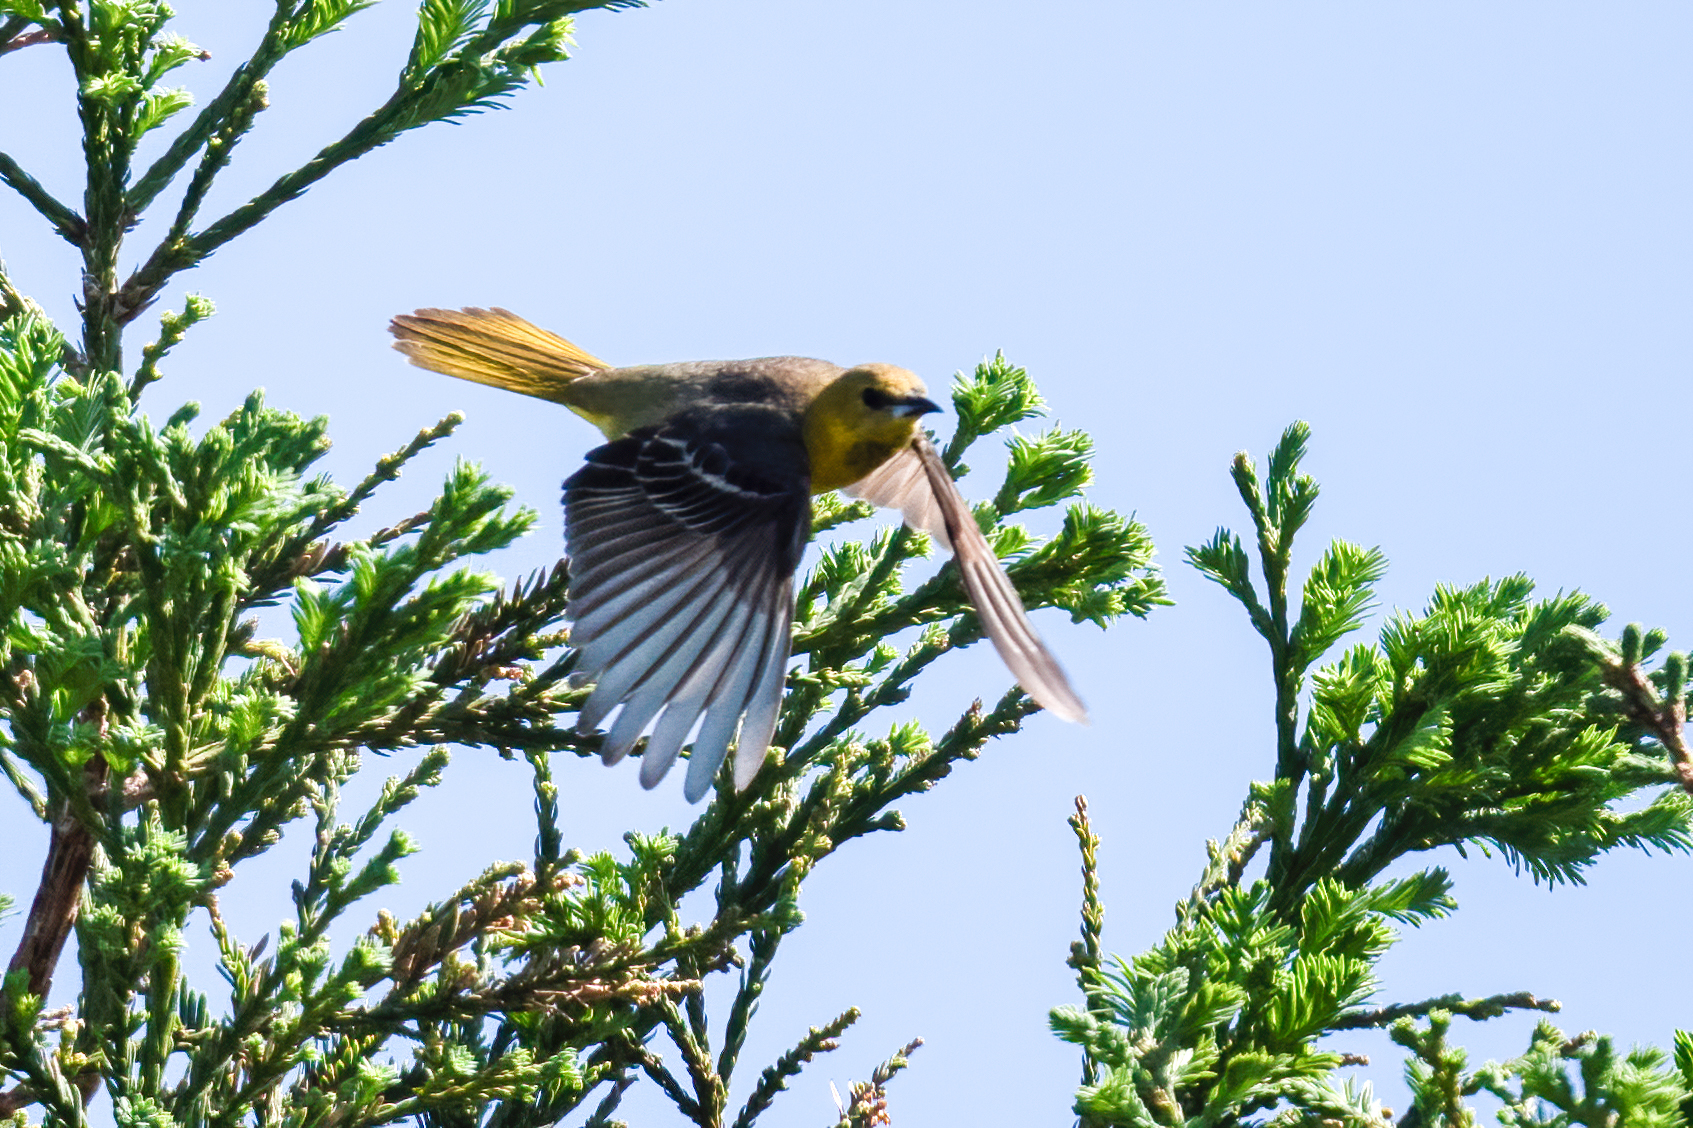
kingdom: Animalia
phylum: Chordata
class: Aves
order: Passeriformes
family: Icteridae
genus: Icterus
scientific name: Icterus bullockii
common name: Bullock's oriole
